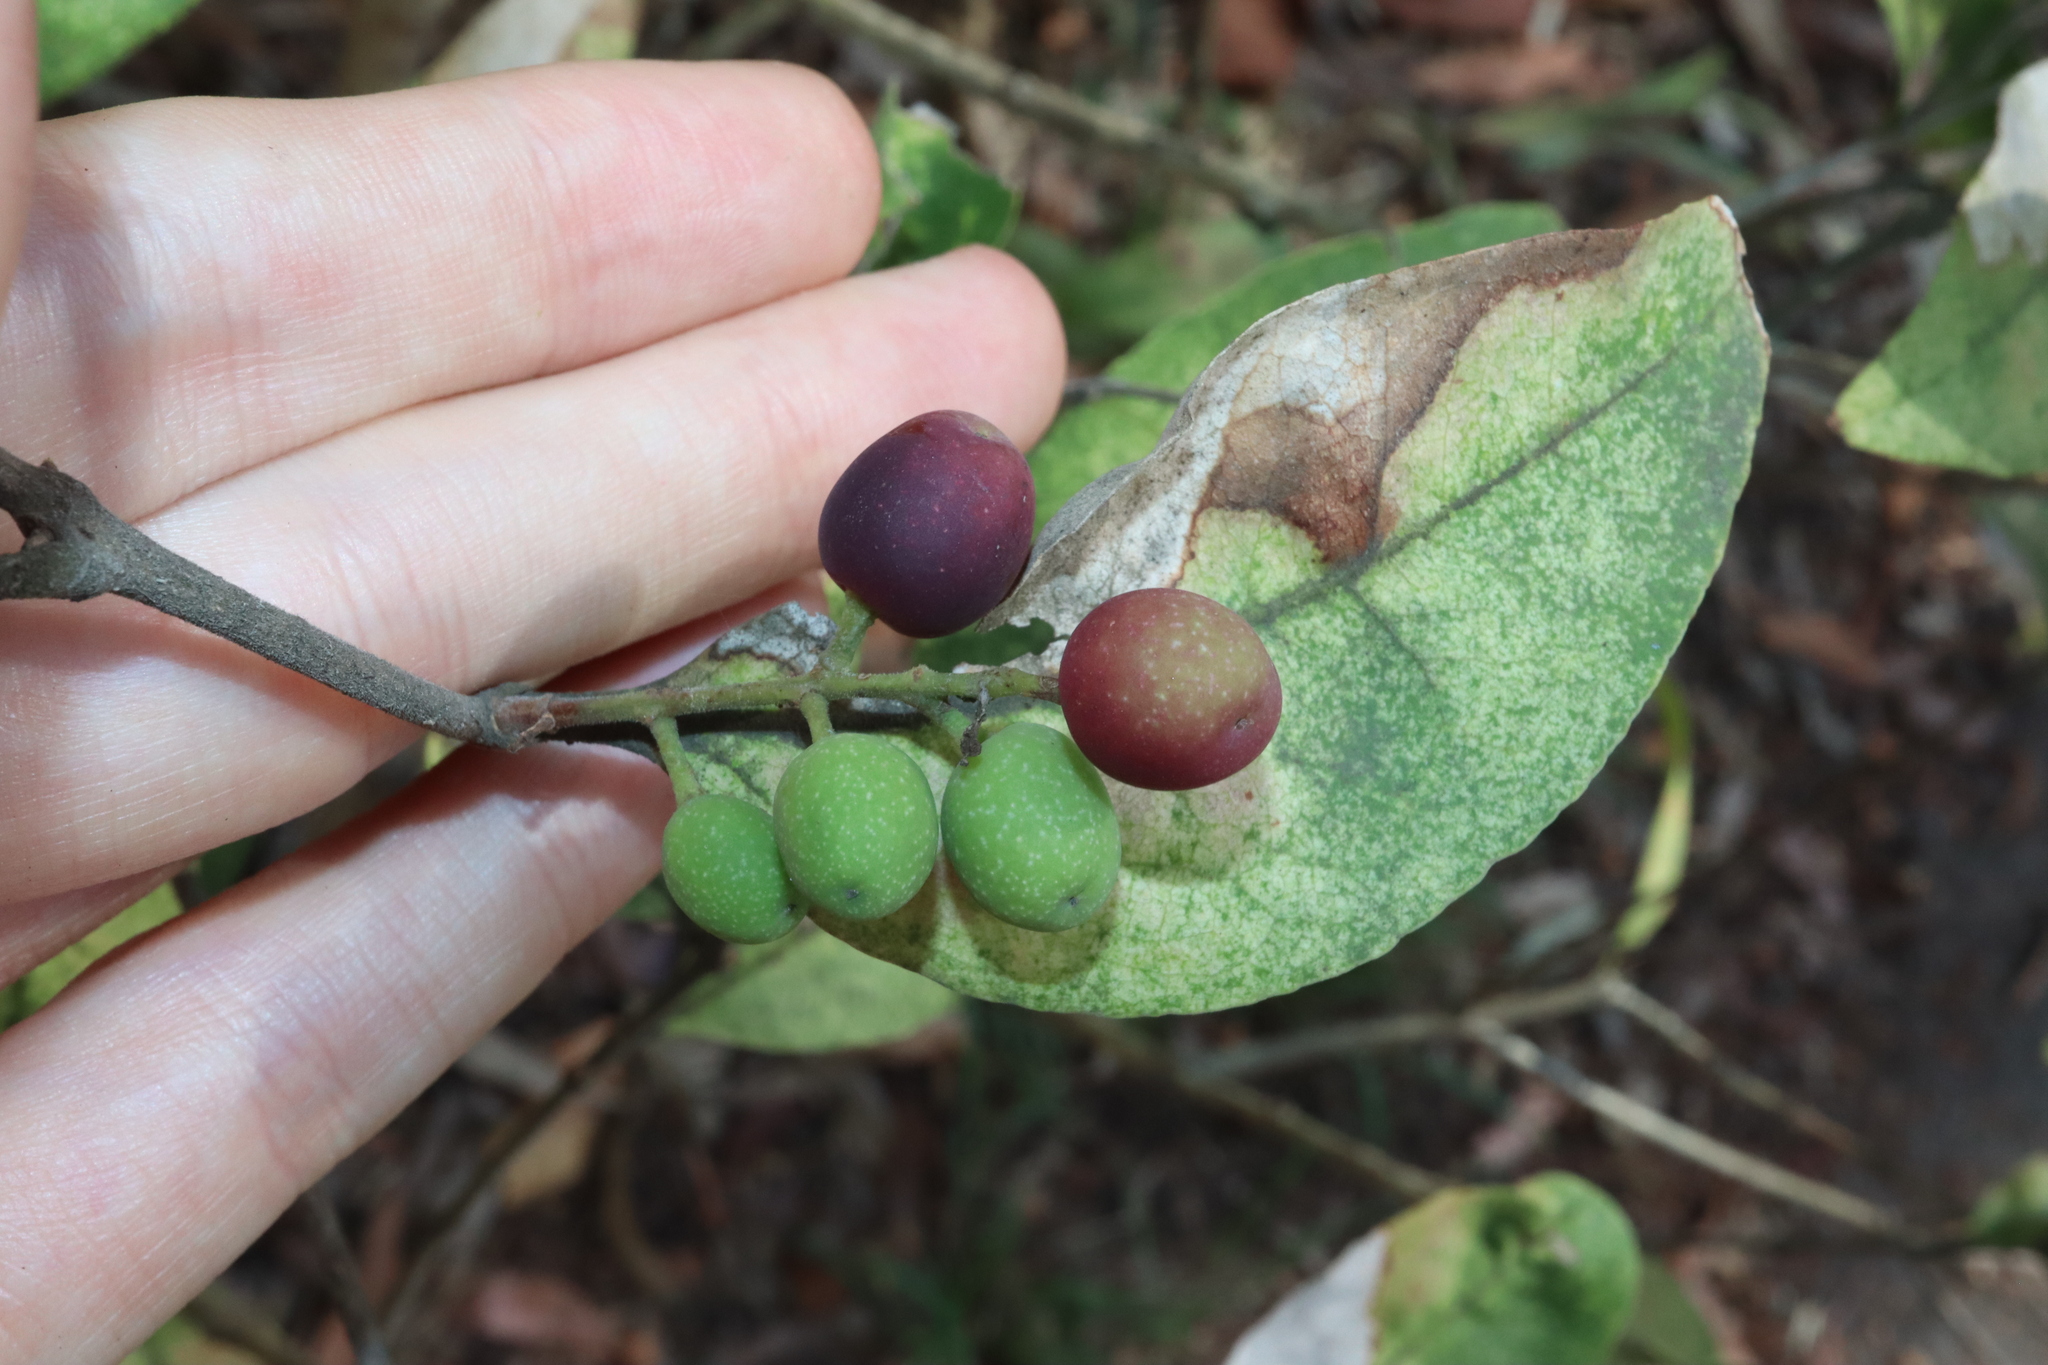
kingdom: Plantae
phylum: Tracheophyta
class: Magnoliopsida
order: Lamiales
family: Oleaceae
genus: Notelaea
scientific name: Notelaea longifolia
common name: Large mock olive
